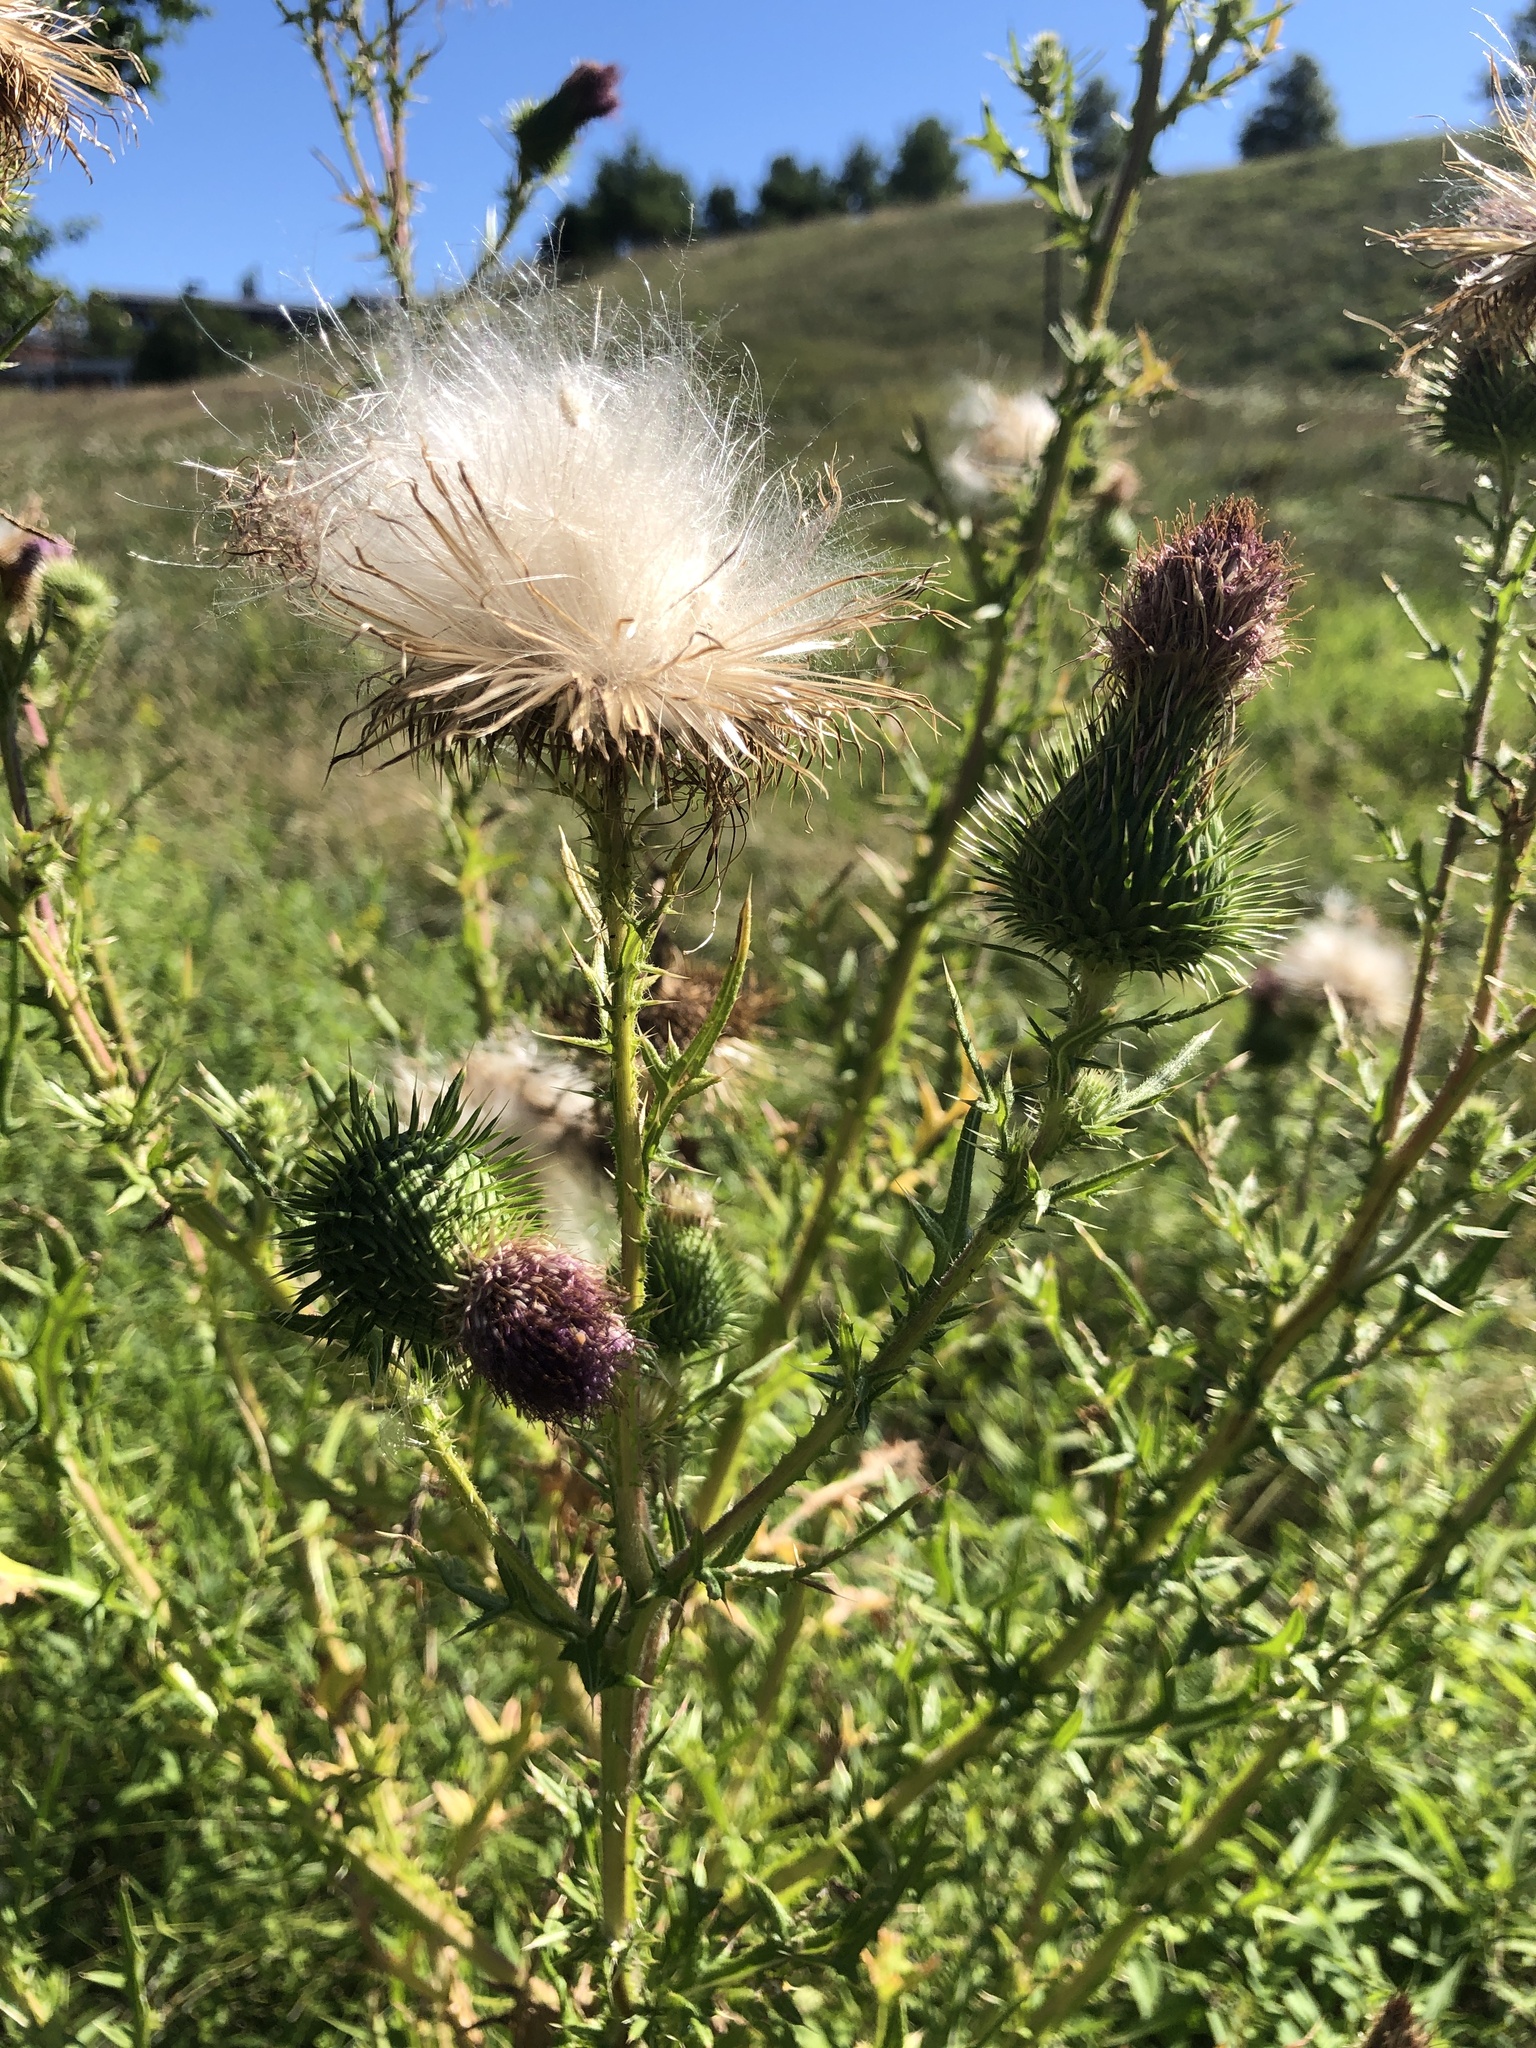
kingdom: Plantae
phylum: Tracheophyta
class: Magnoliopsida
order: Asterales
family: Asteraceae
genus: Cirsium
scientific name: Cirsium vulgare
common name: Bull thistle
